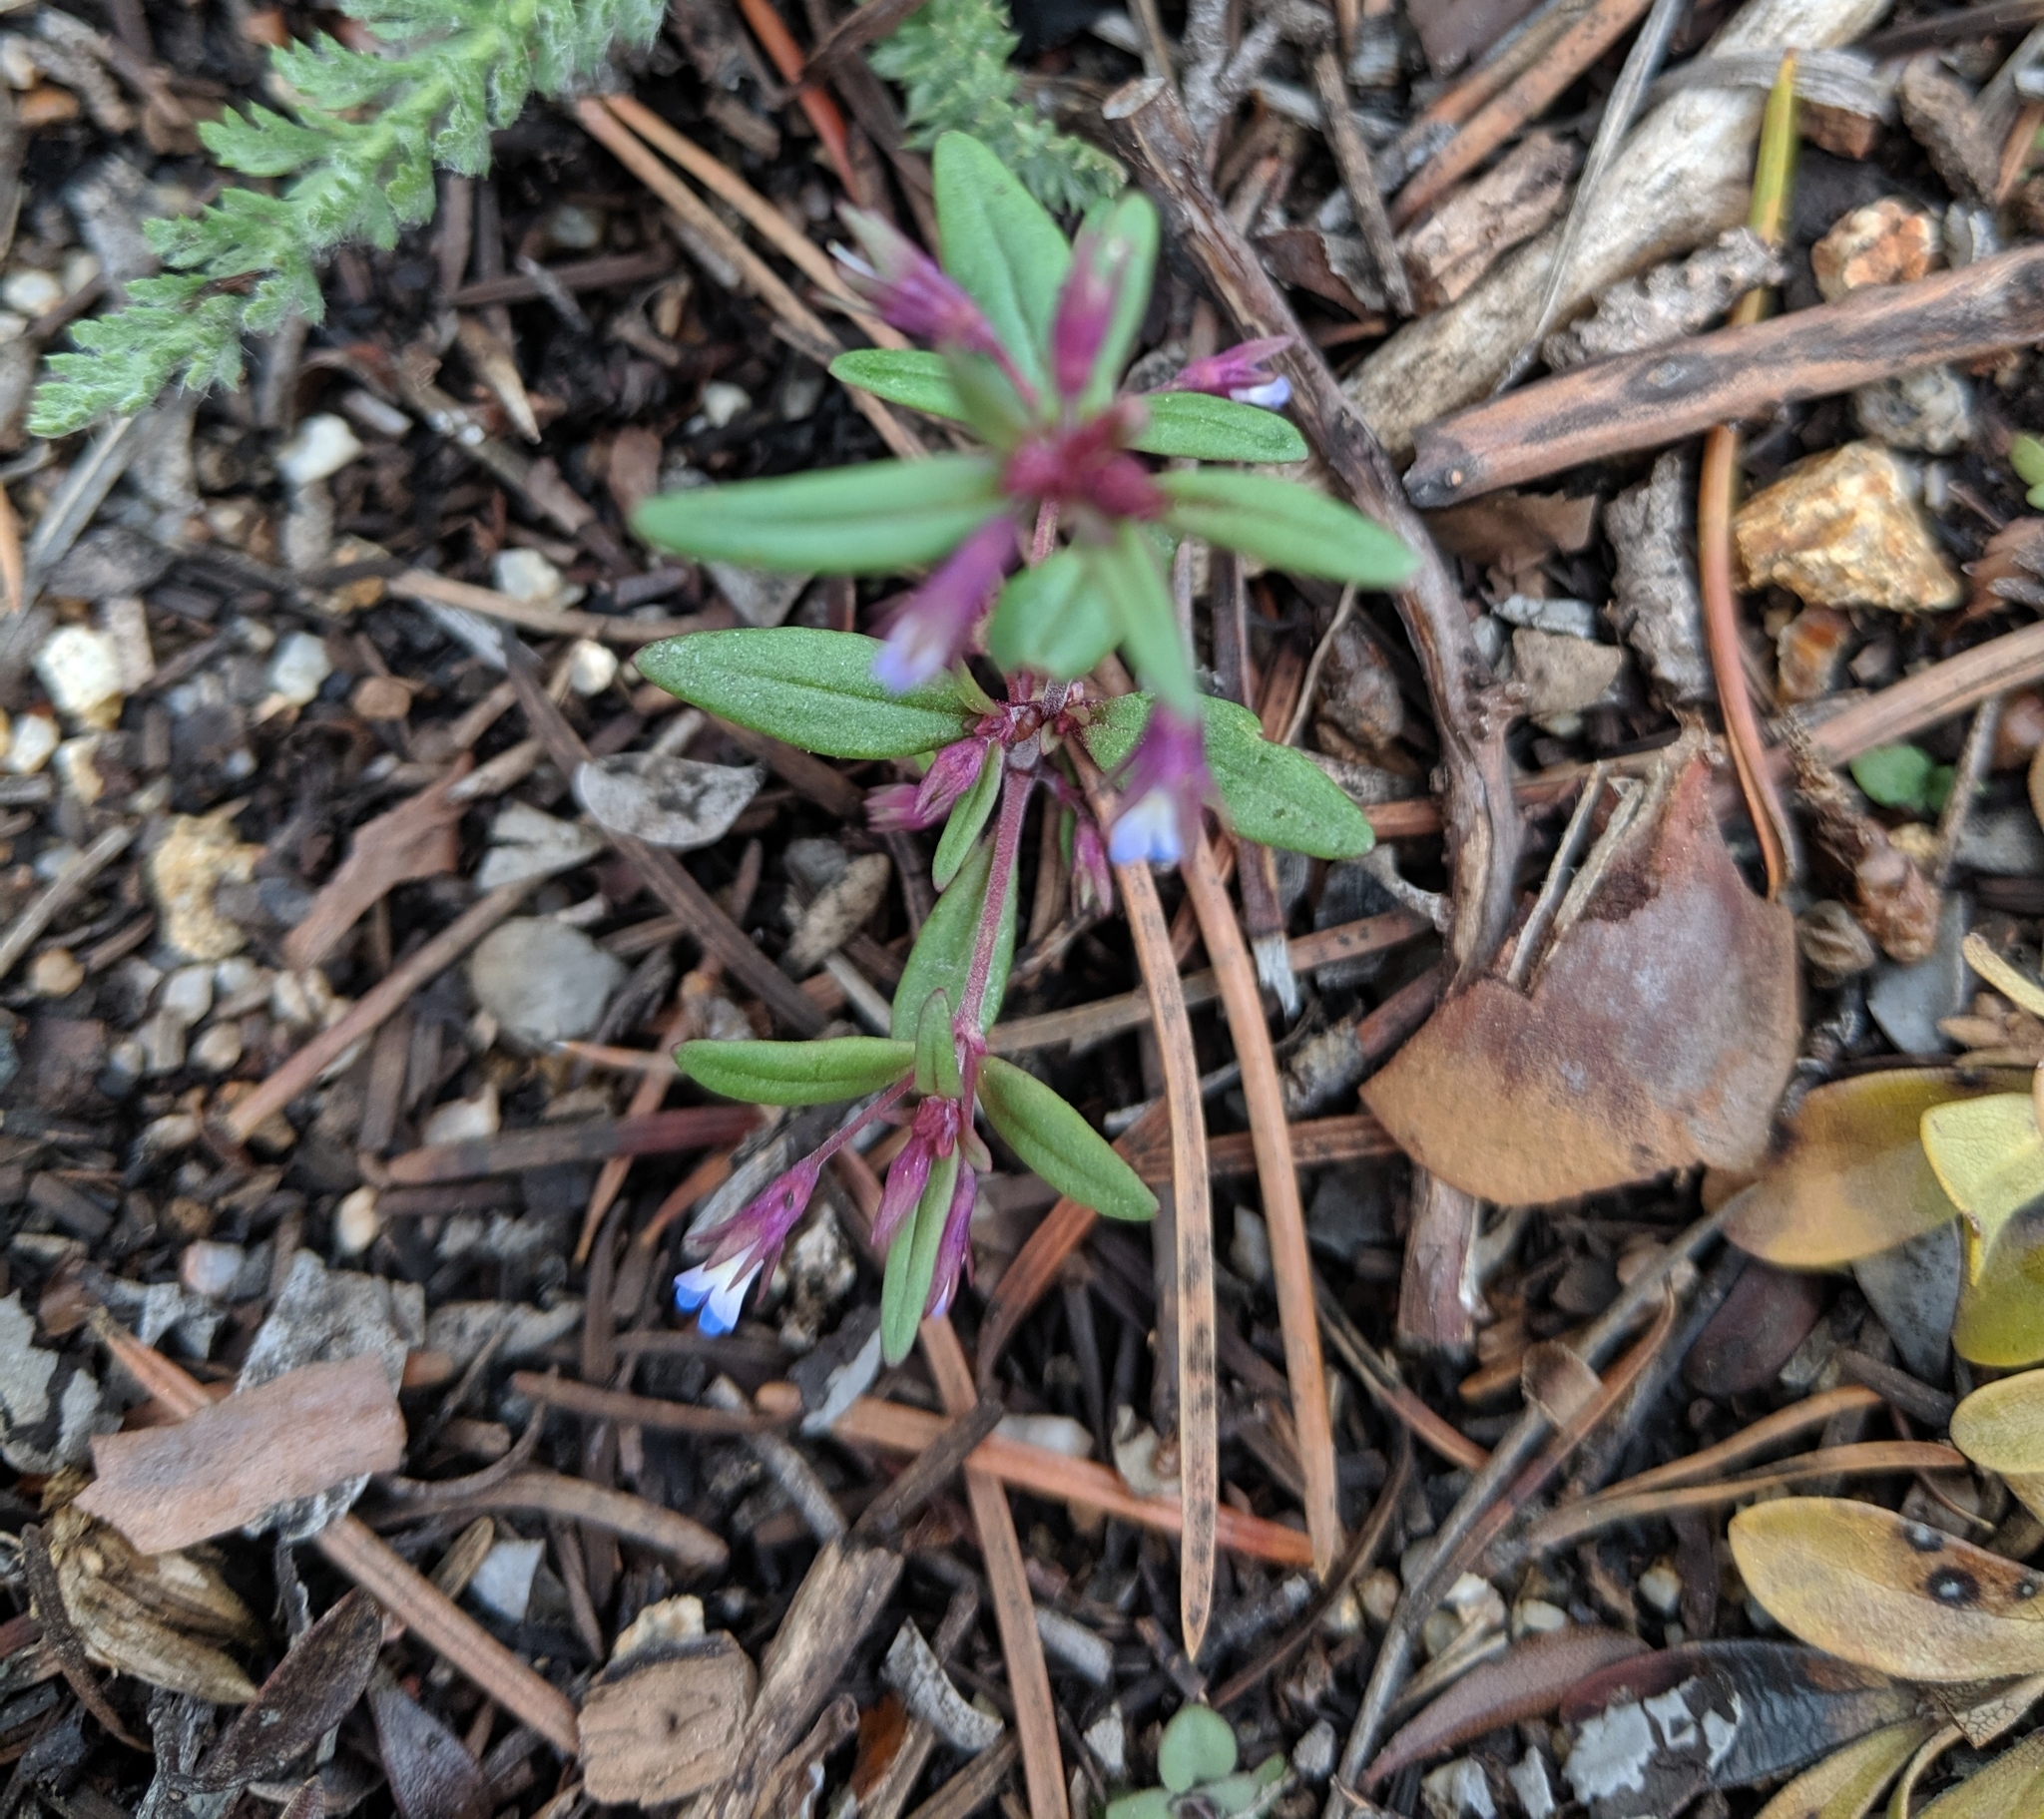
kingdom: Plantae
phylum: Tracheophyta
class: Magnoliopsida
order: Lamiales
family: Plantaginaceae
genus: Collinsia
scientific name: Collinsia parviflora
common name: Blue-lips
